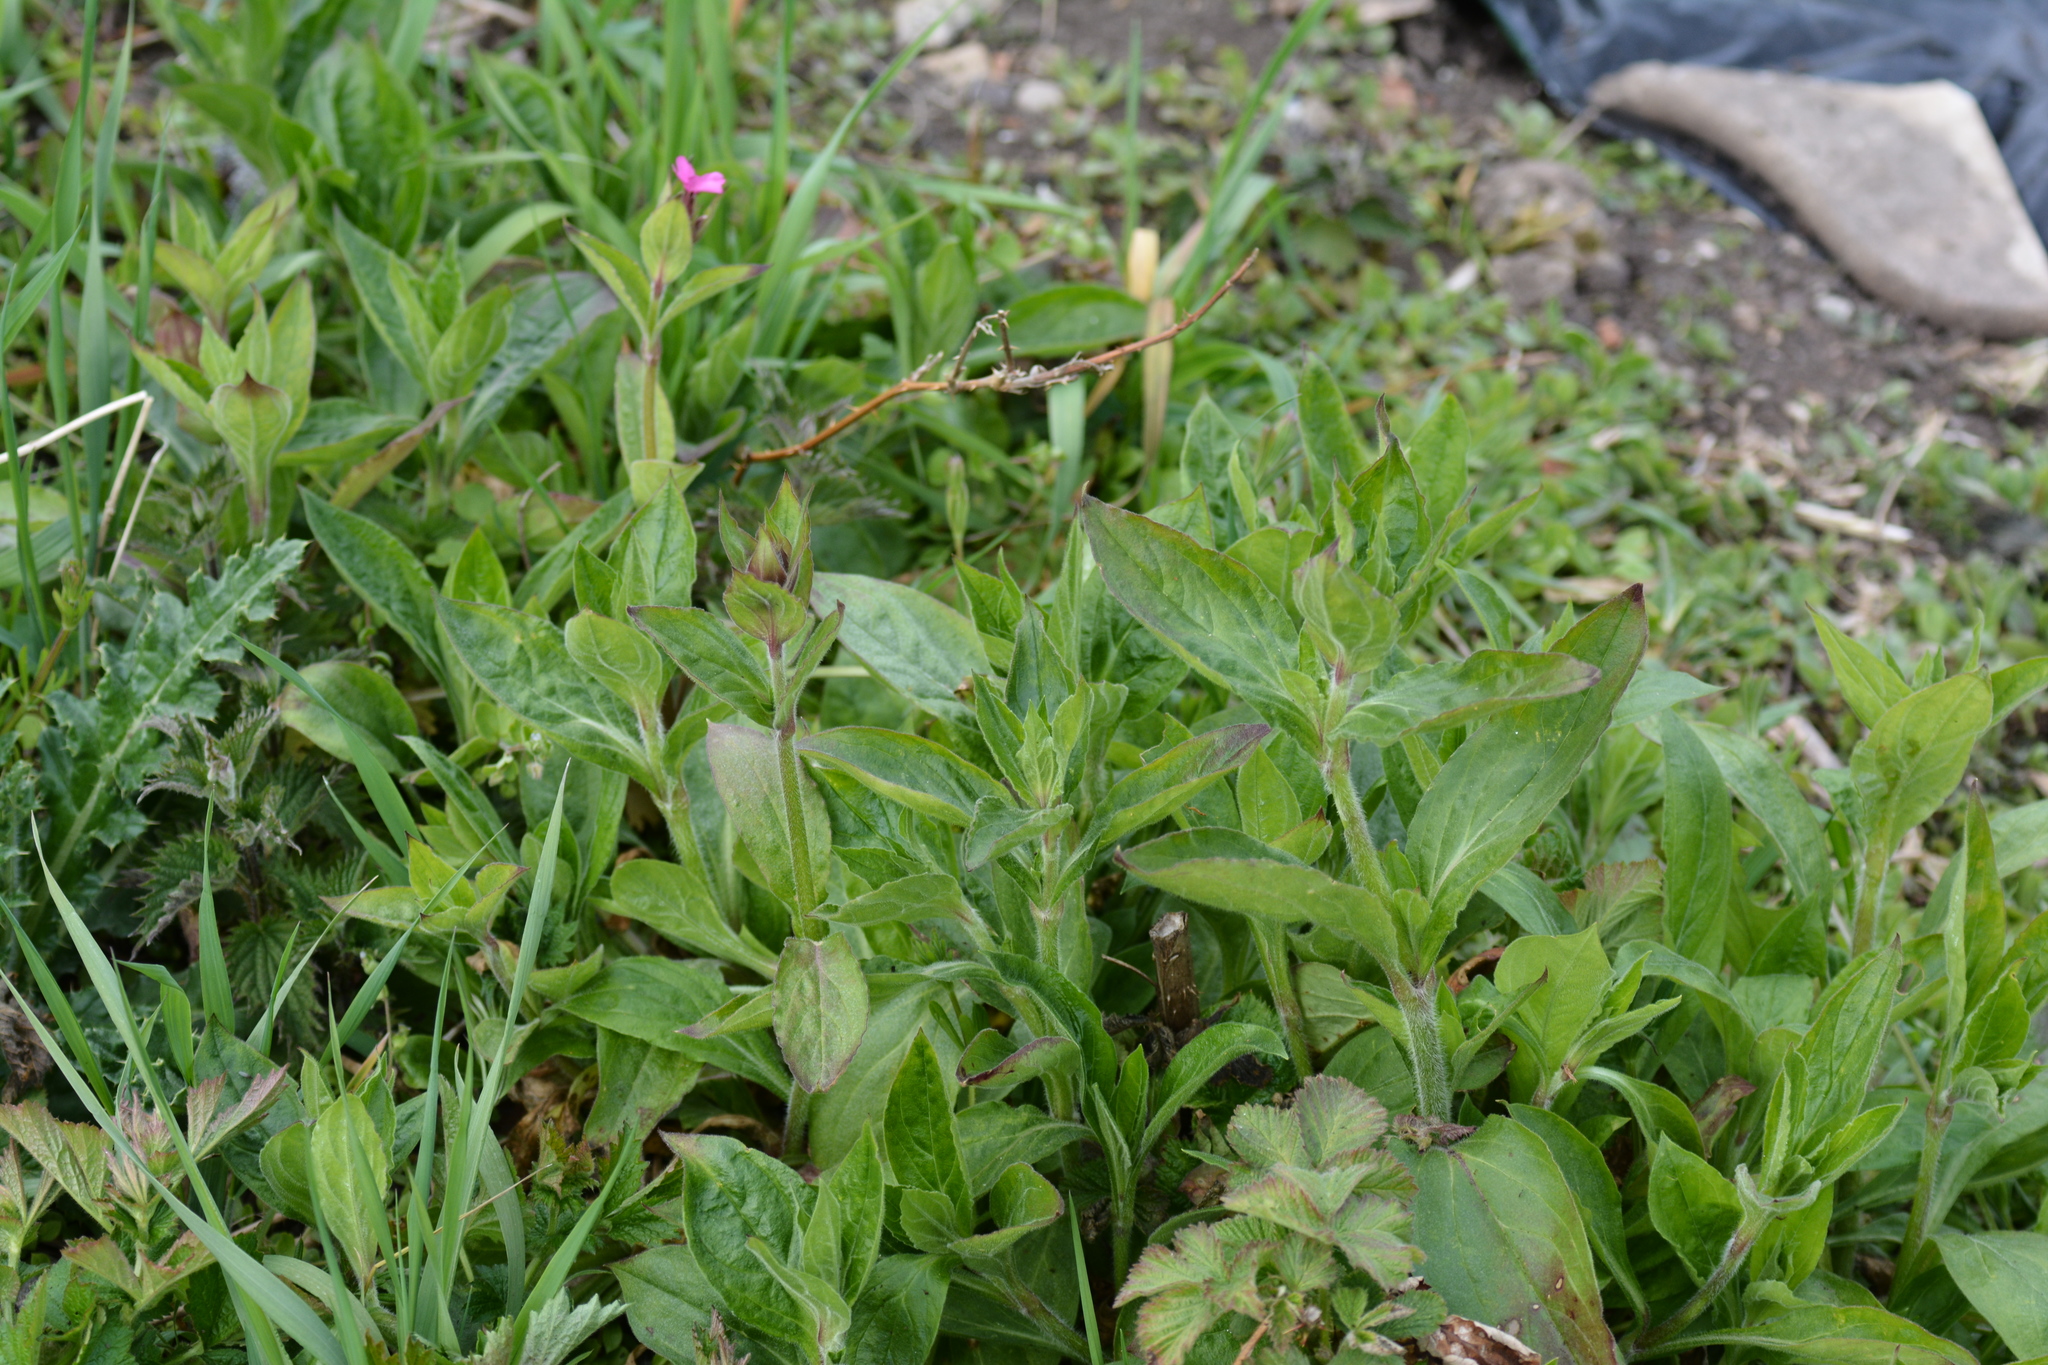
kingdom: Plantae
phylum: Tracheophyta
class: Magnoliopsida
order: Caryophyllales
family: Caryophyllaceae
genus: Silene
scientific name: Silene dioica
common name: Red campion
